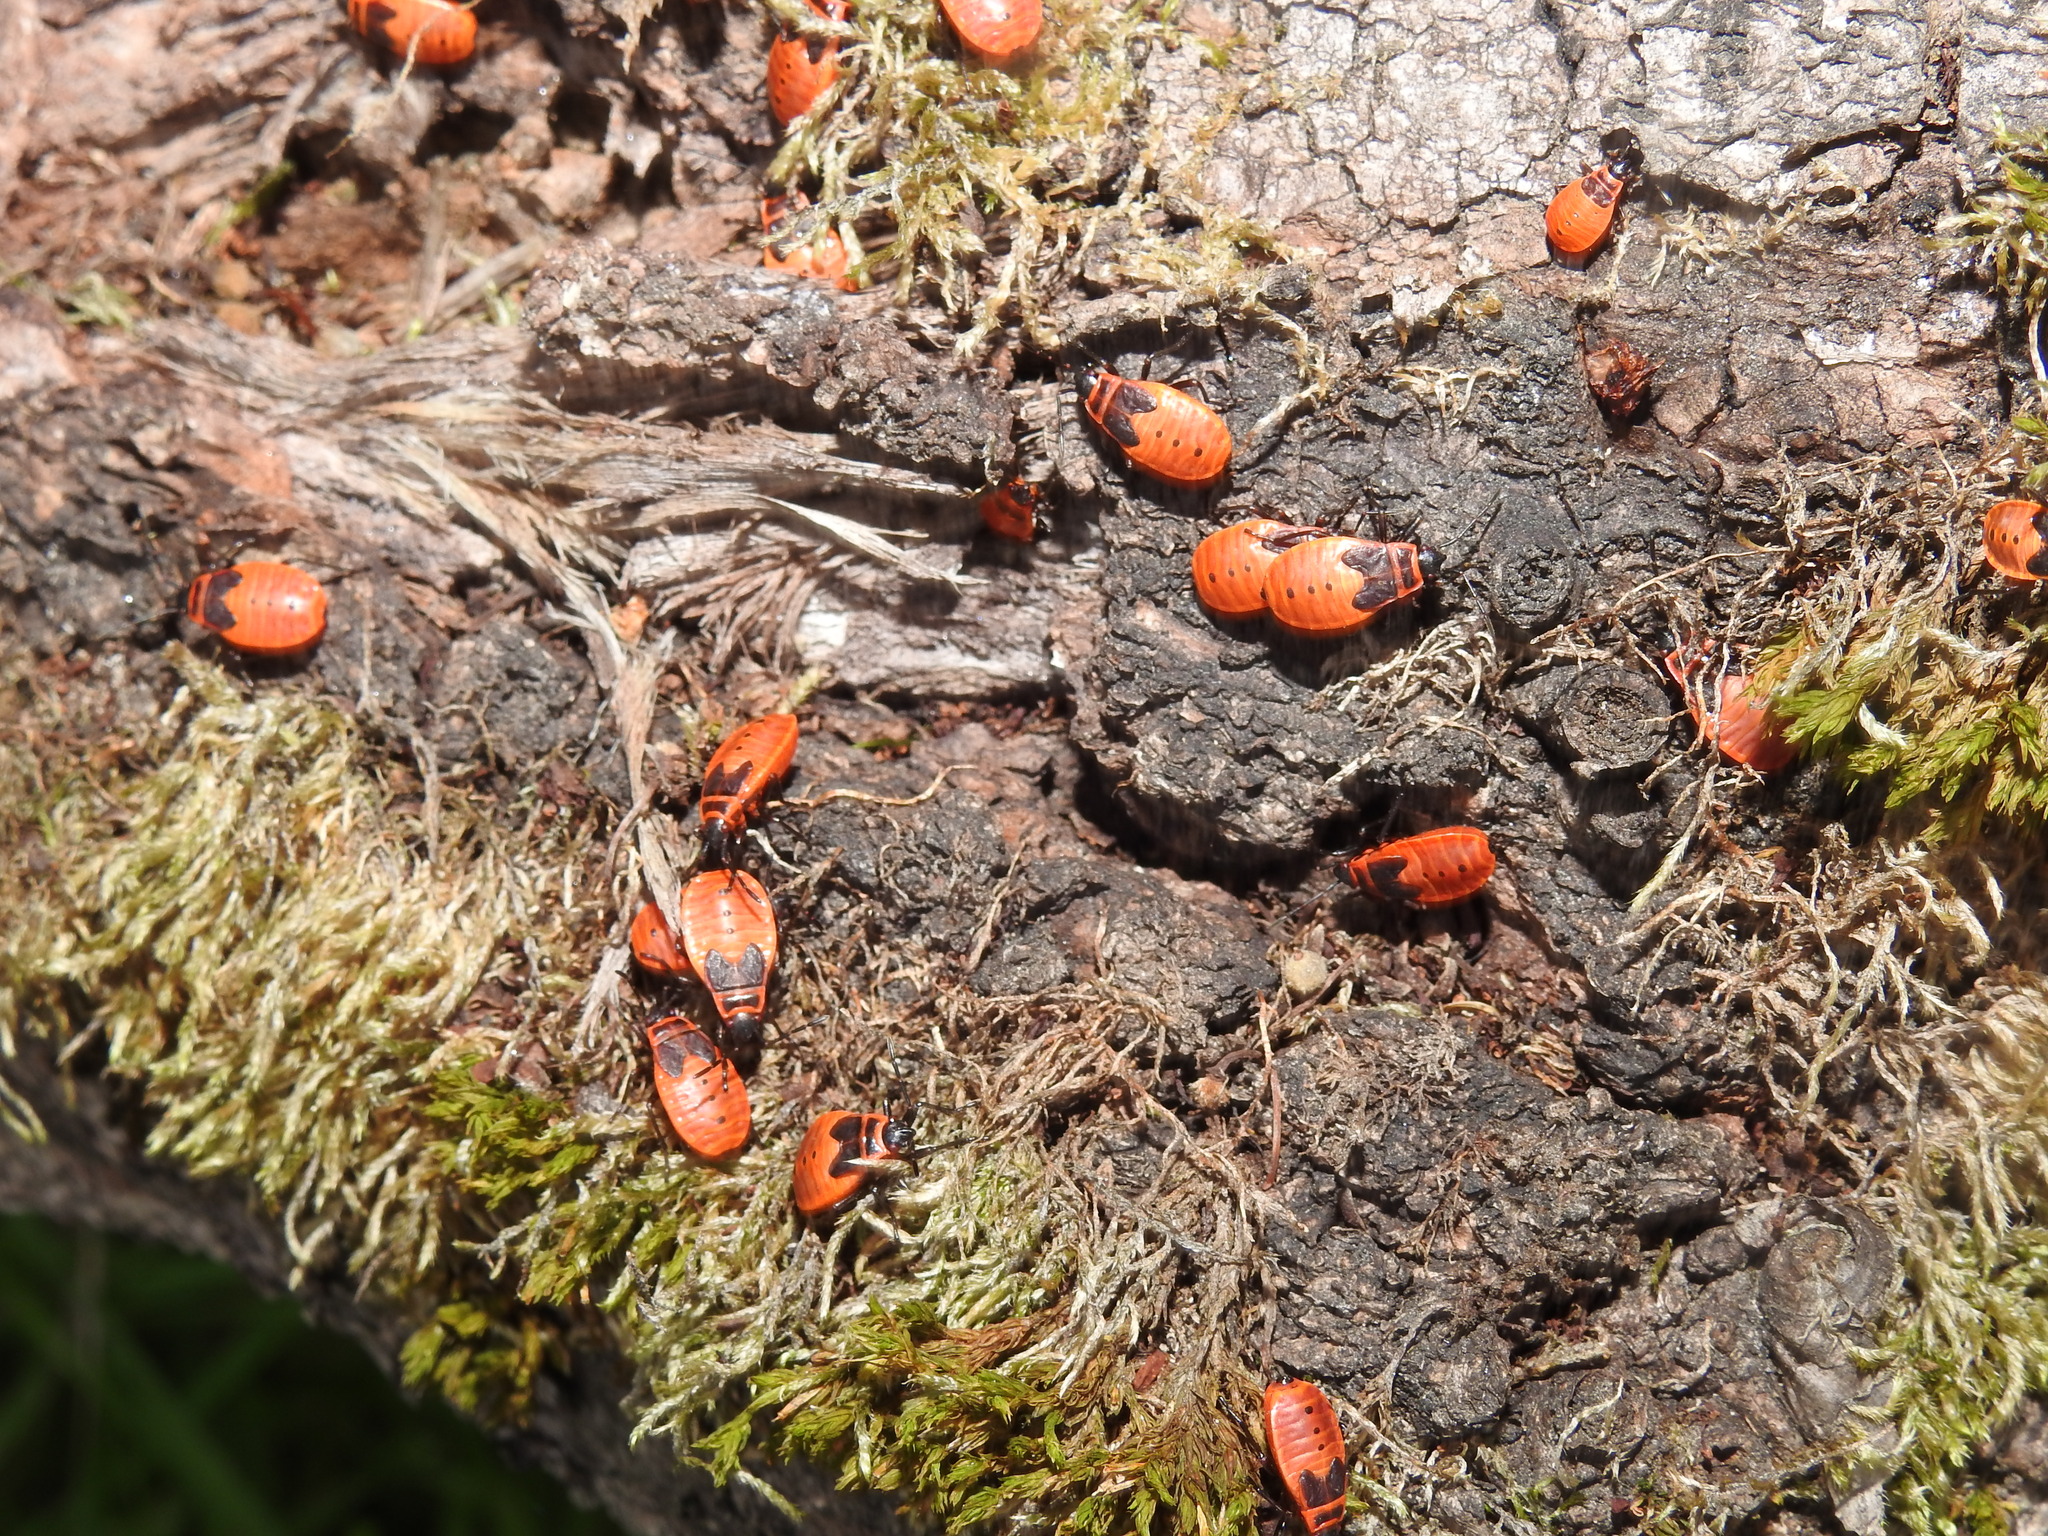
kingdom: Animalia
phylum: Arthropoda
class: Insecta
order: Hemiptera
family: Pyrrhocoridae
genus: Pyrrhocoris
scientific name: Pyrrhocoris apterus
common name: Firebug
